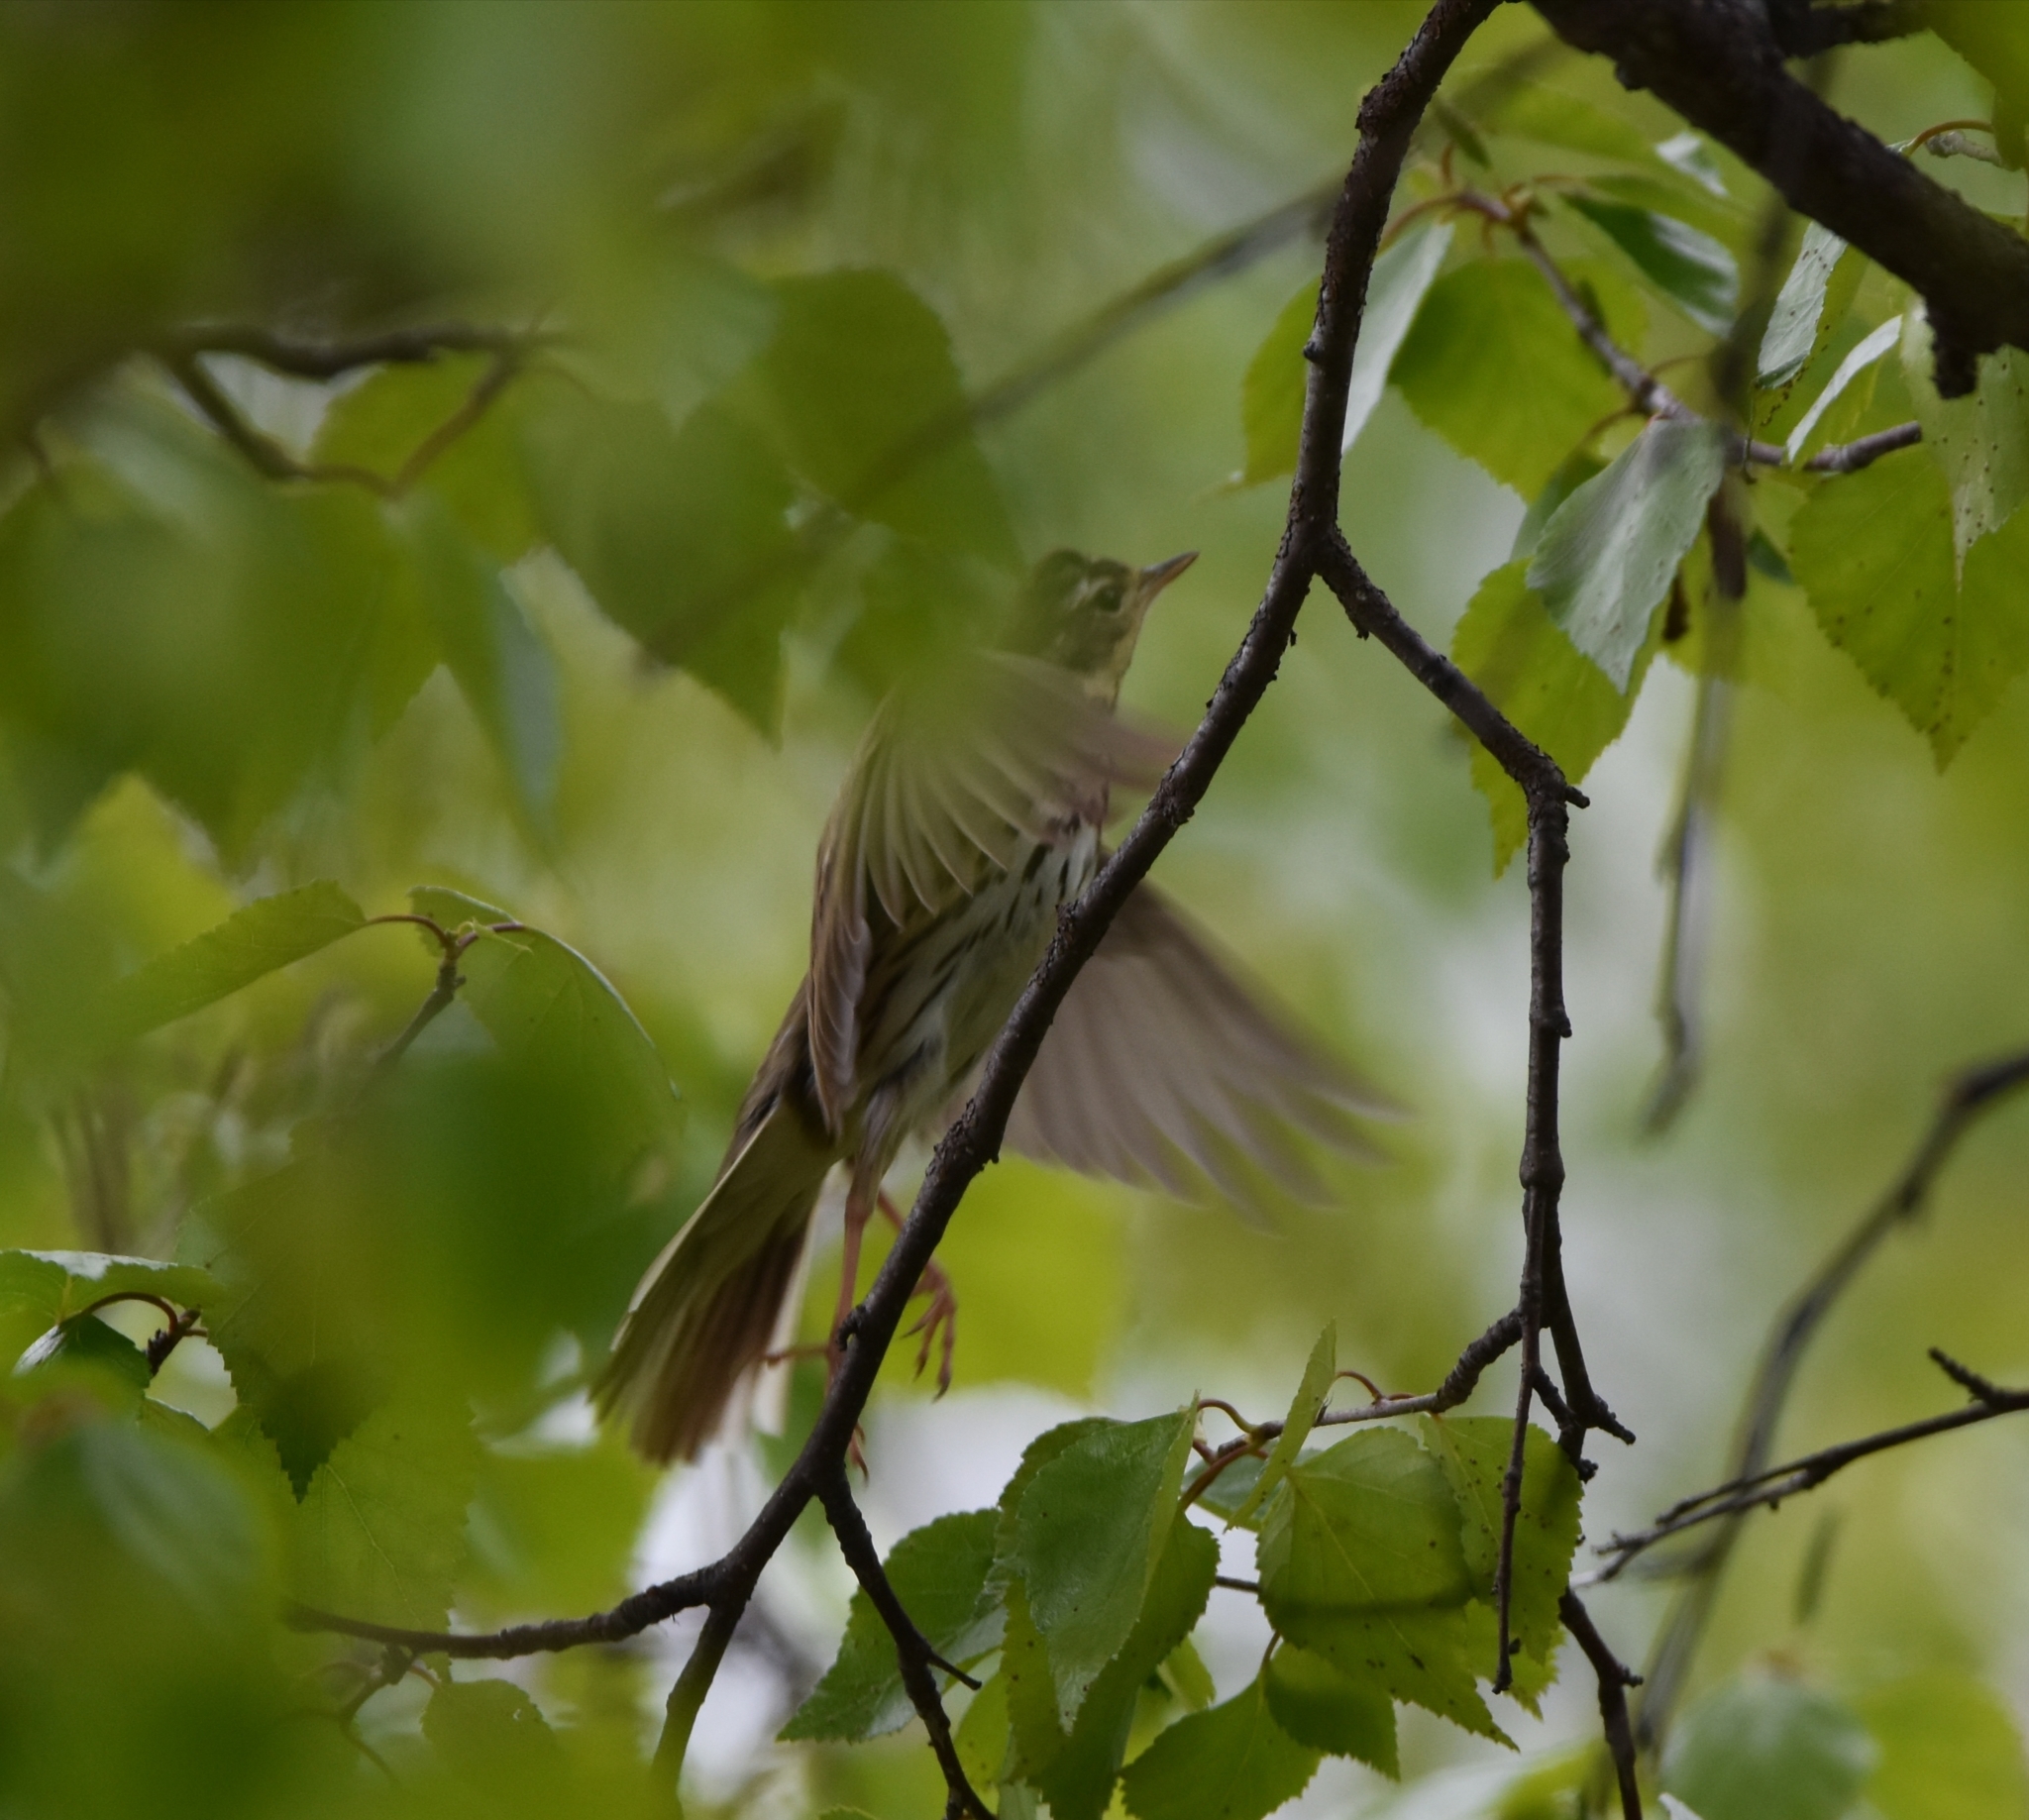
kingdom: Animalia
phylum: Chordata
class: Aves
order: Passeriformes
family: Motacillidae
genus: Anthus
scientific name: Anthus hodgsoni
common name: Olive-backed pipit
